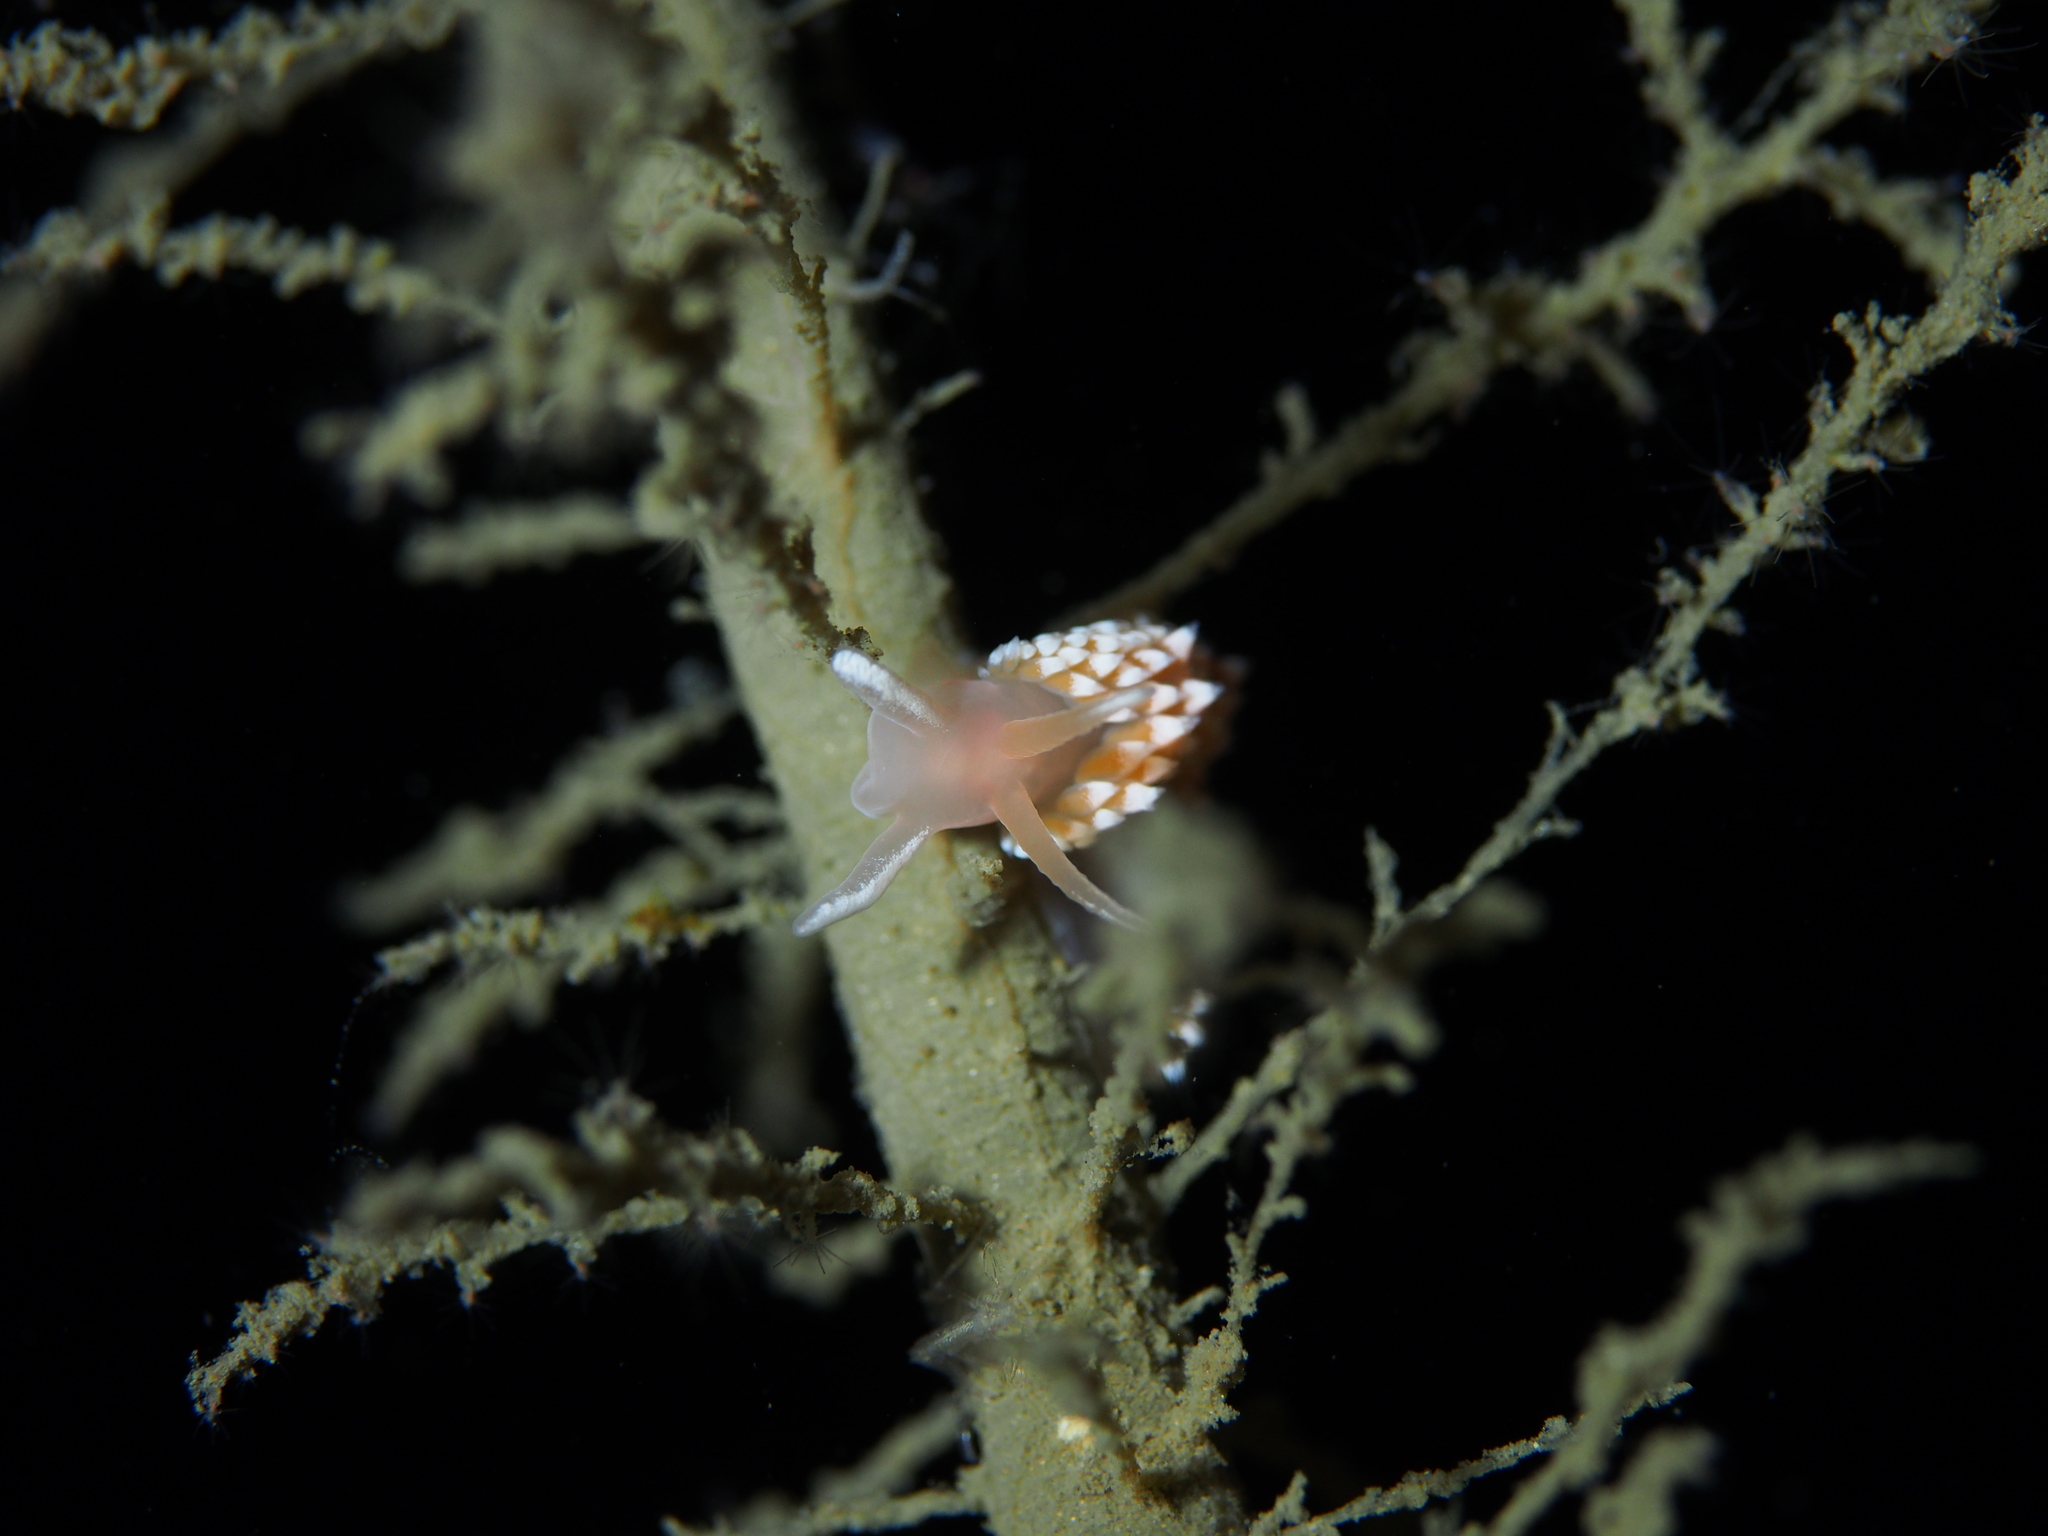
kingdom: Animalia
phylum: Mollusca
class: Gastropoda
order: Nudibranchia
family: Coryphellidae
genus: Coryphella
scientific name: Coryphella verrucosa
